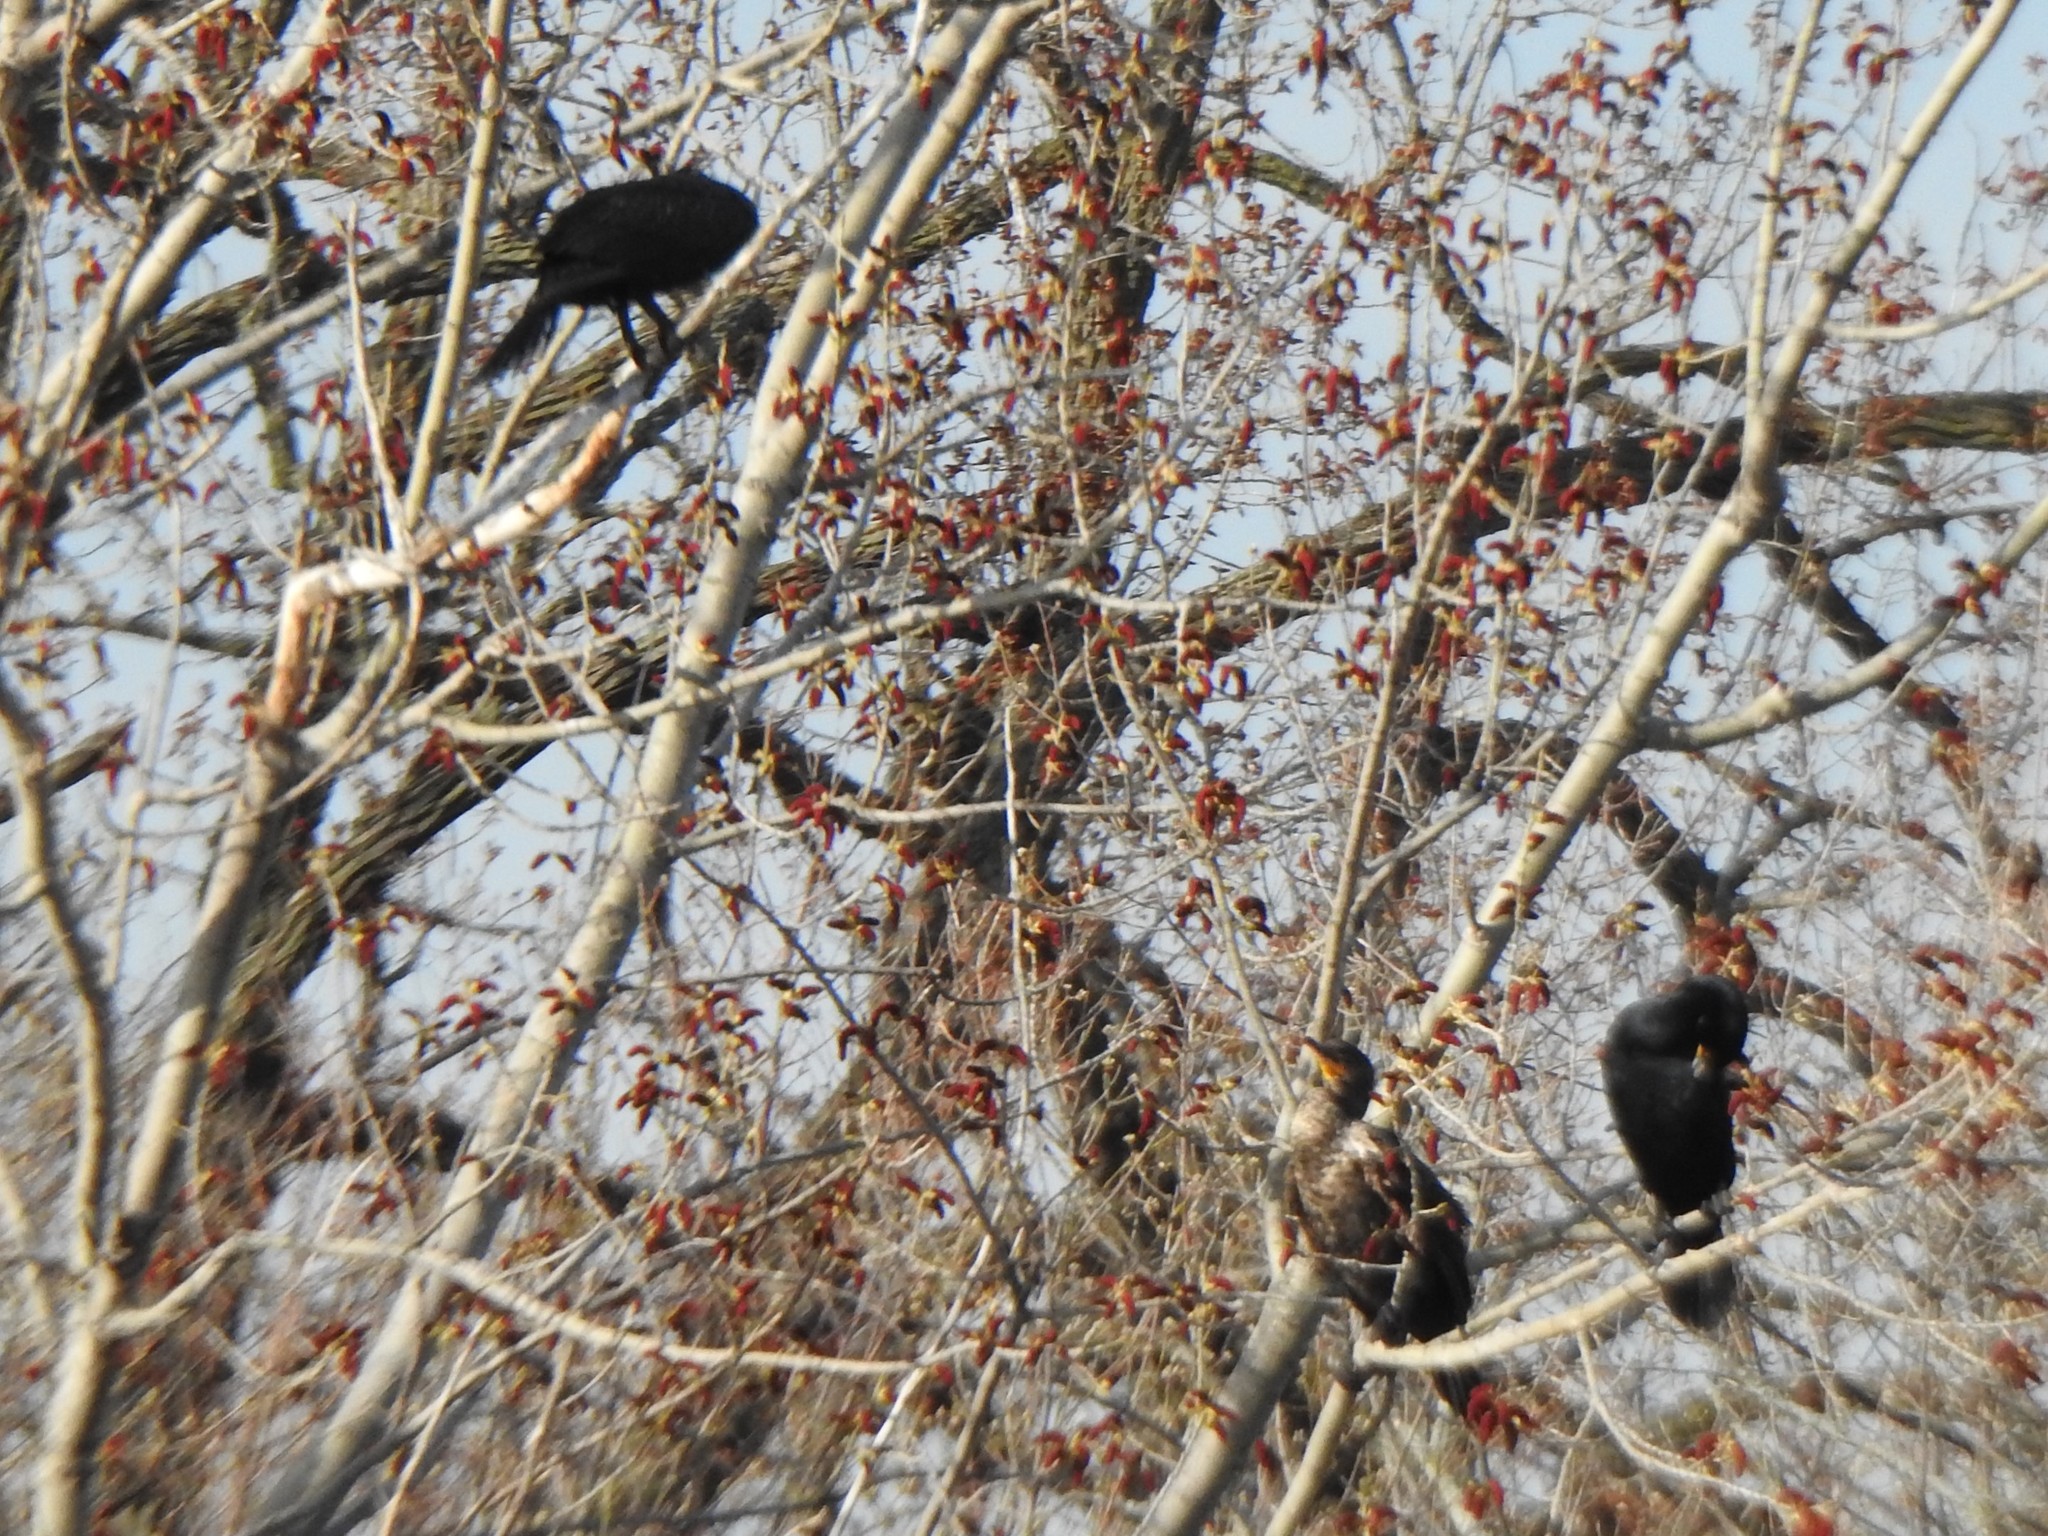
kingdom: Animalia
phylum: Chordata
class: Aves
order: Suliformes
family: Phalacrocoracidae
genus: Phalacrocorax
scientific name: Phalacrocorax auritus
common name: Double-crested cormorant
